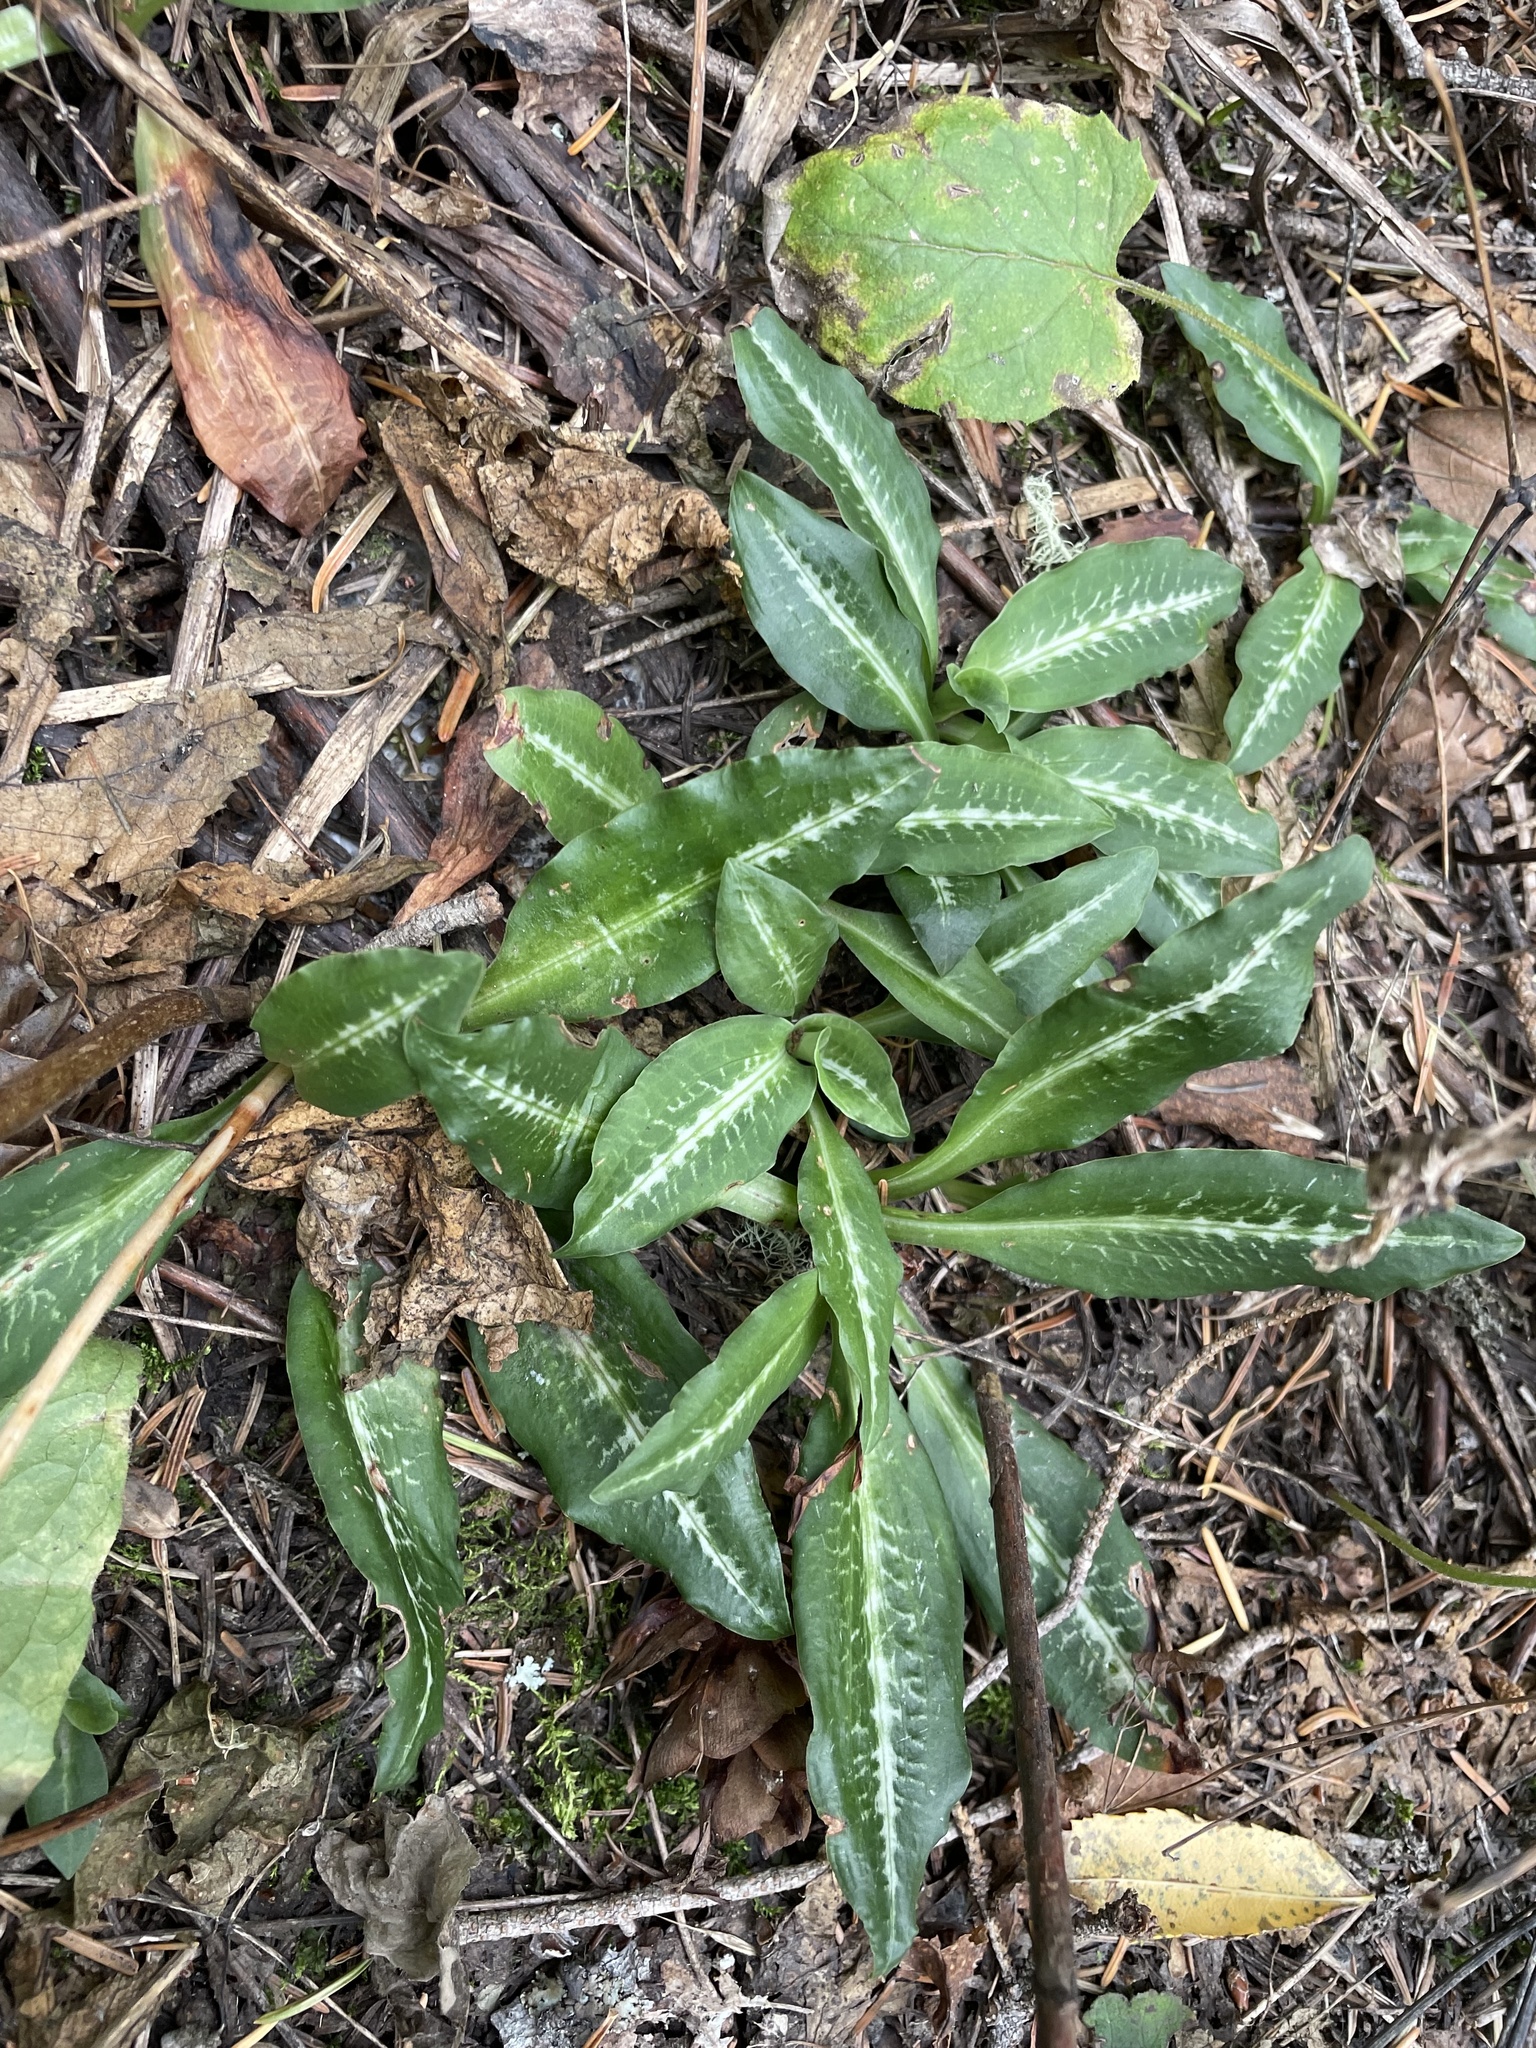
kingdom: Plantae
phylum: Tracheophyta
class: Liliopsida
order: Asparagales
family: Orchidaceae
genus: Goodyera
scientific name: Goodyera oblongifolia
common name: Giant rattlesnake-plantain
